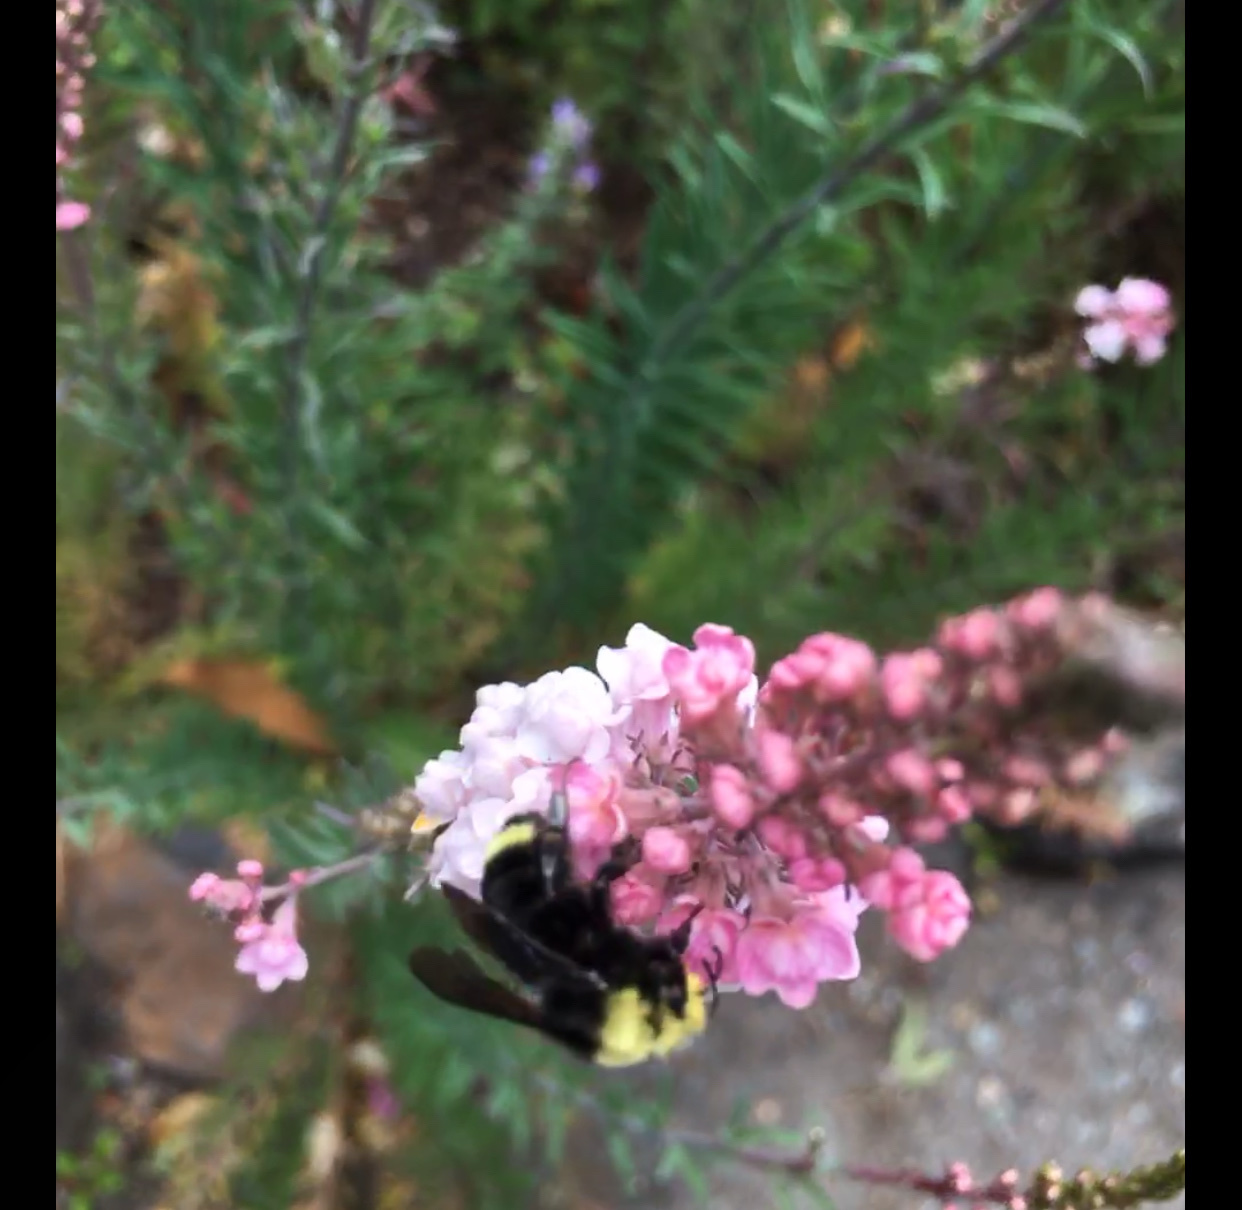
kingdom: Animalia
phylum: Arthropoda
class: Insecta
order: Hymenoptera
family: Apidae
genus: Pyrobombus
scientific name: Pyrobombus
